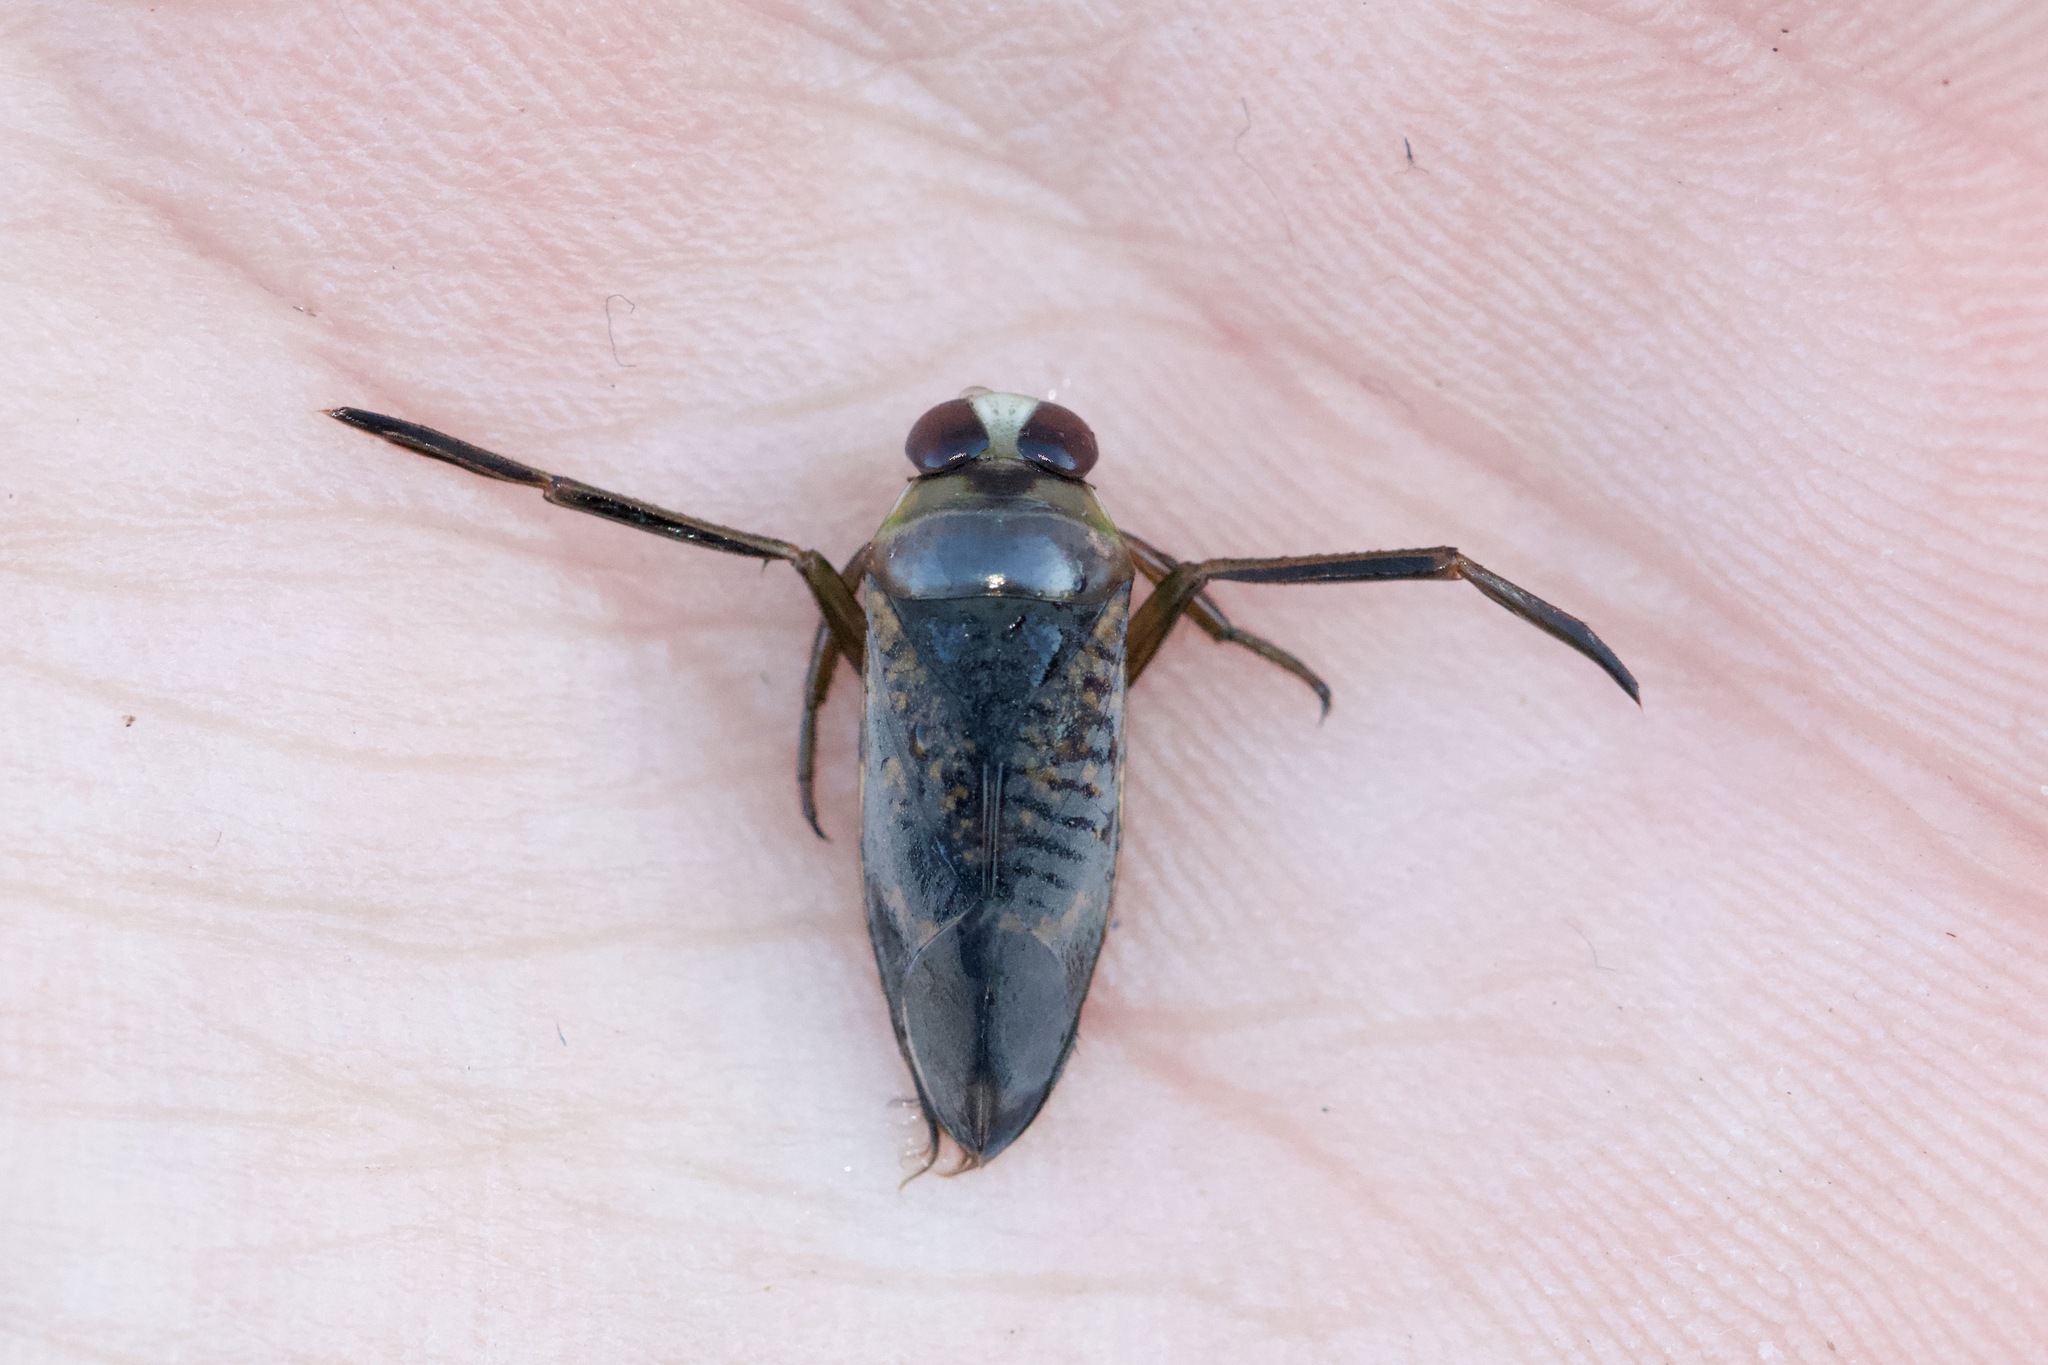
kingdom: Animalia
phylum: Arthropoda
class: Insecta
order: Hemiptera
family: Notonectidae
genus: Notonecta
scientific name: Notonecta irrorata
